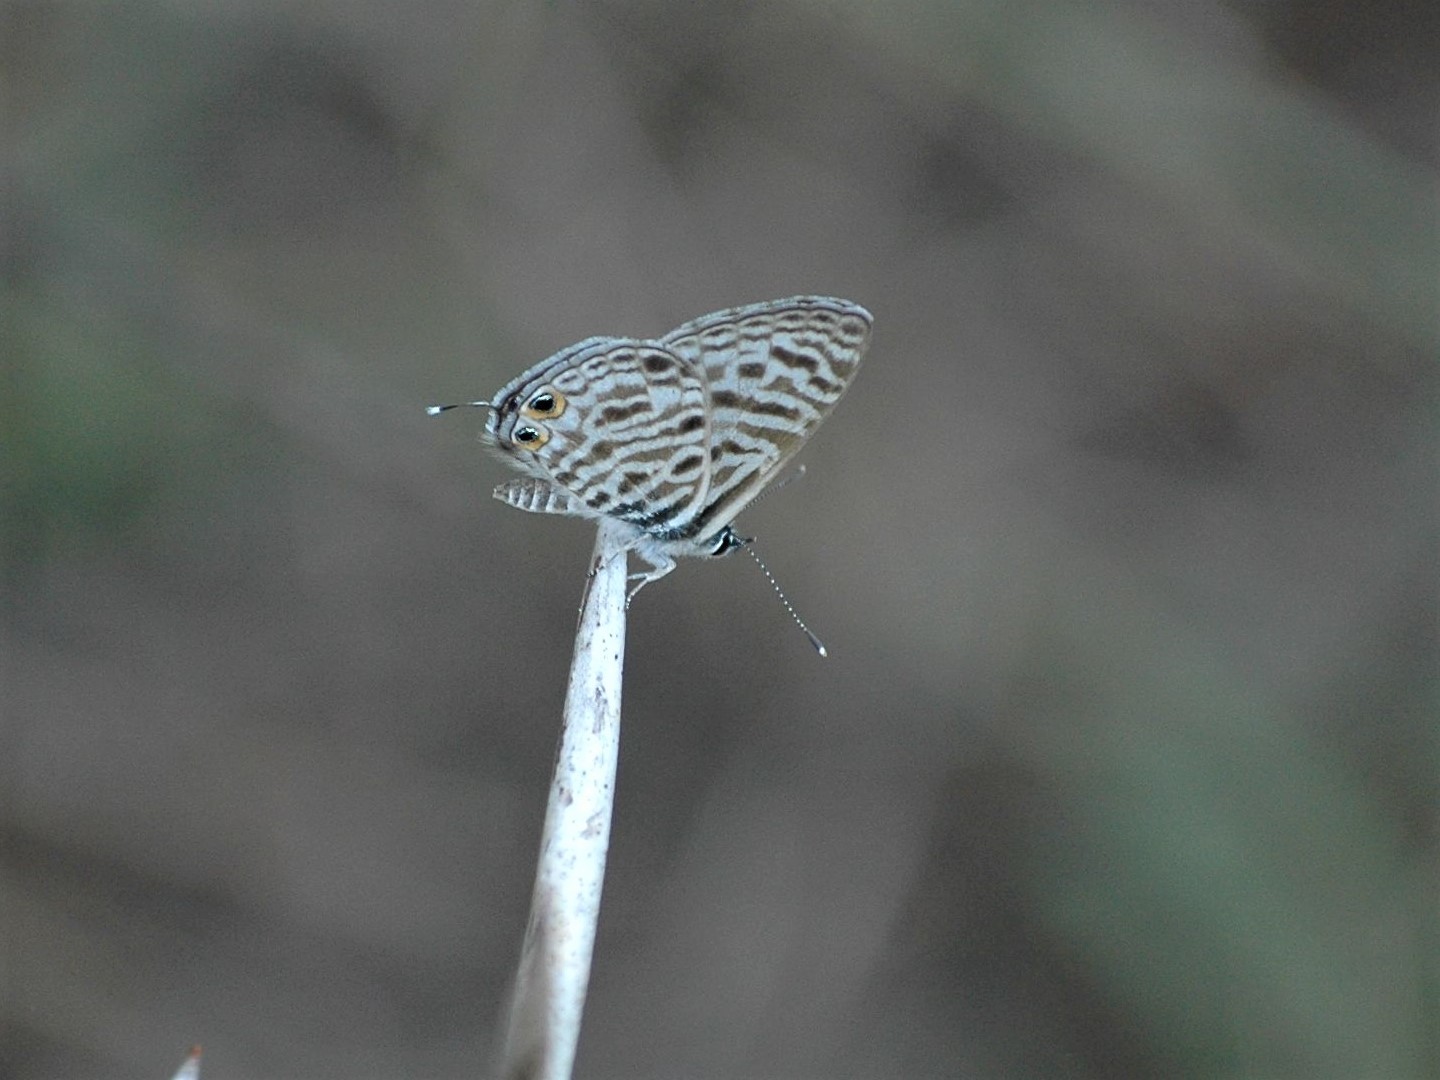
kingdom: Animalia
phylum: Arthropoda
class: Insecta
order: Lepidoptera
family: Lycaenidae
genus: Leptotes
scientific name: Leptotes
